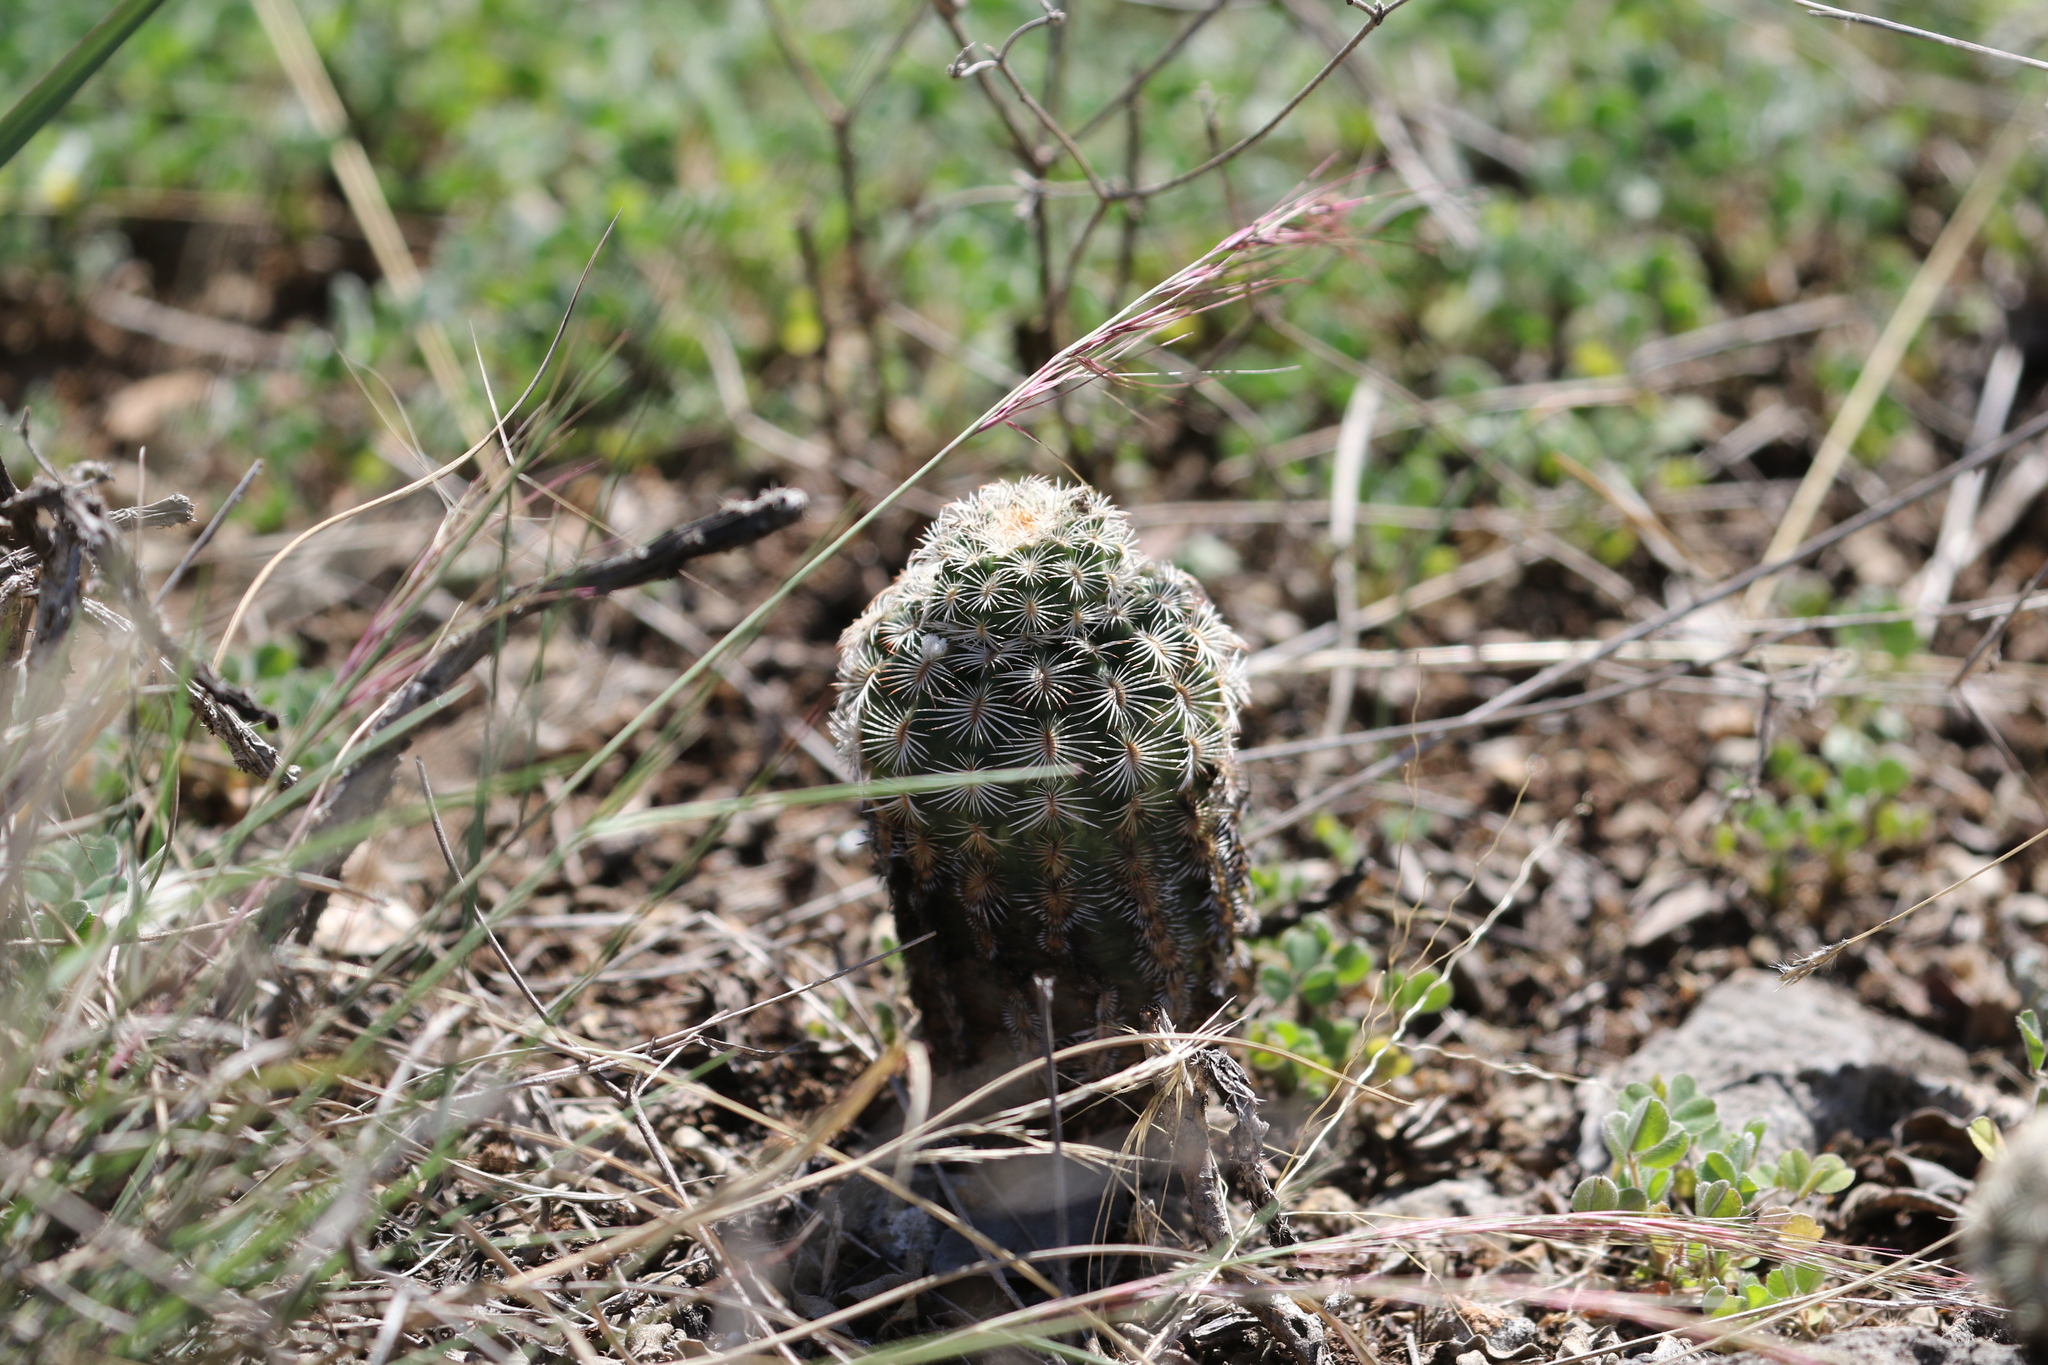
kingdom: Plantae
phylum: Tracheophyta
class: Magnoliopsida
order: Caryophyllales
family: Cactaceae
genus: Echinocereus
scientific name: Echinocereus reichenbachii
